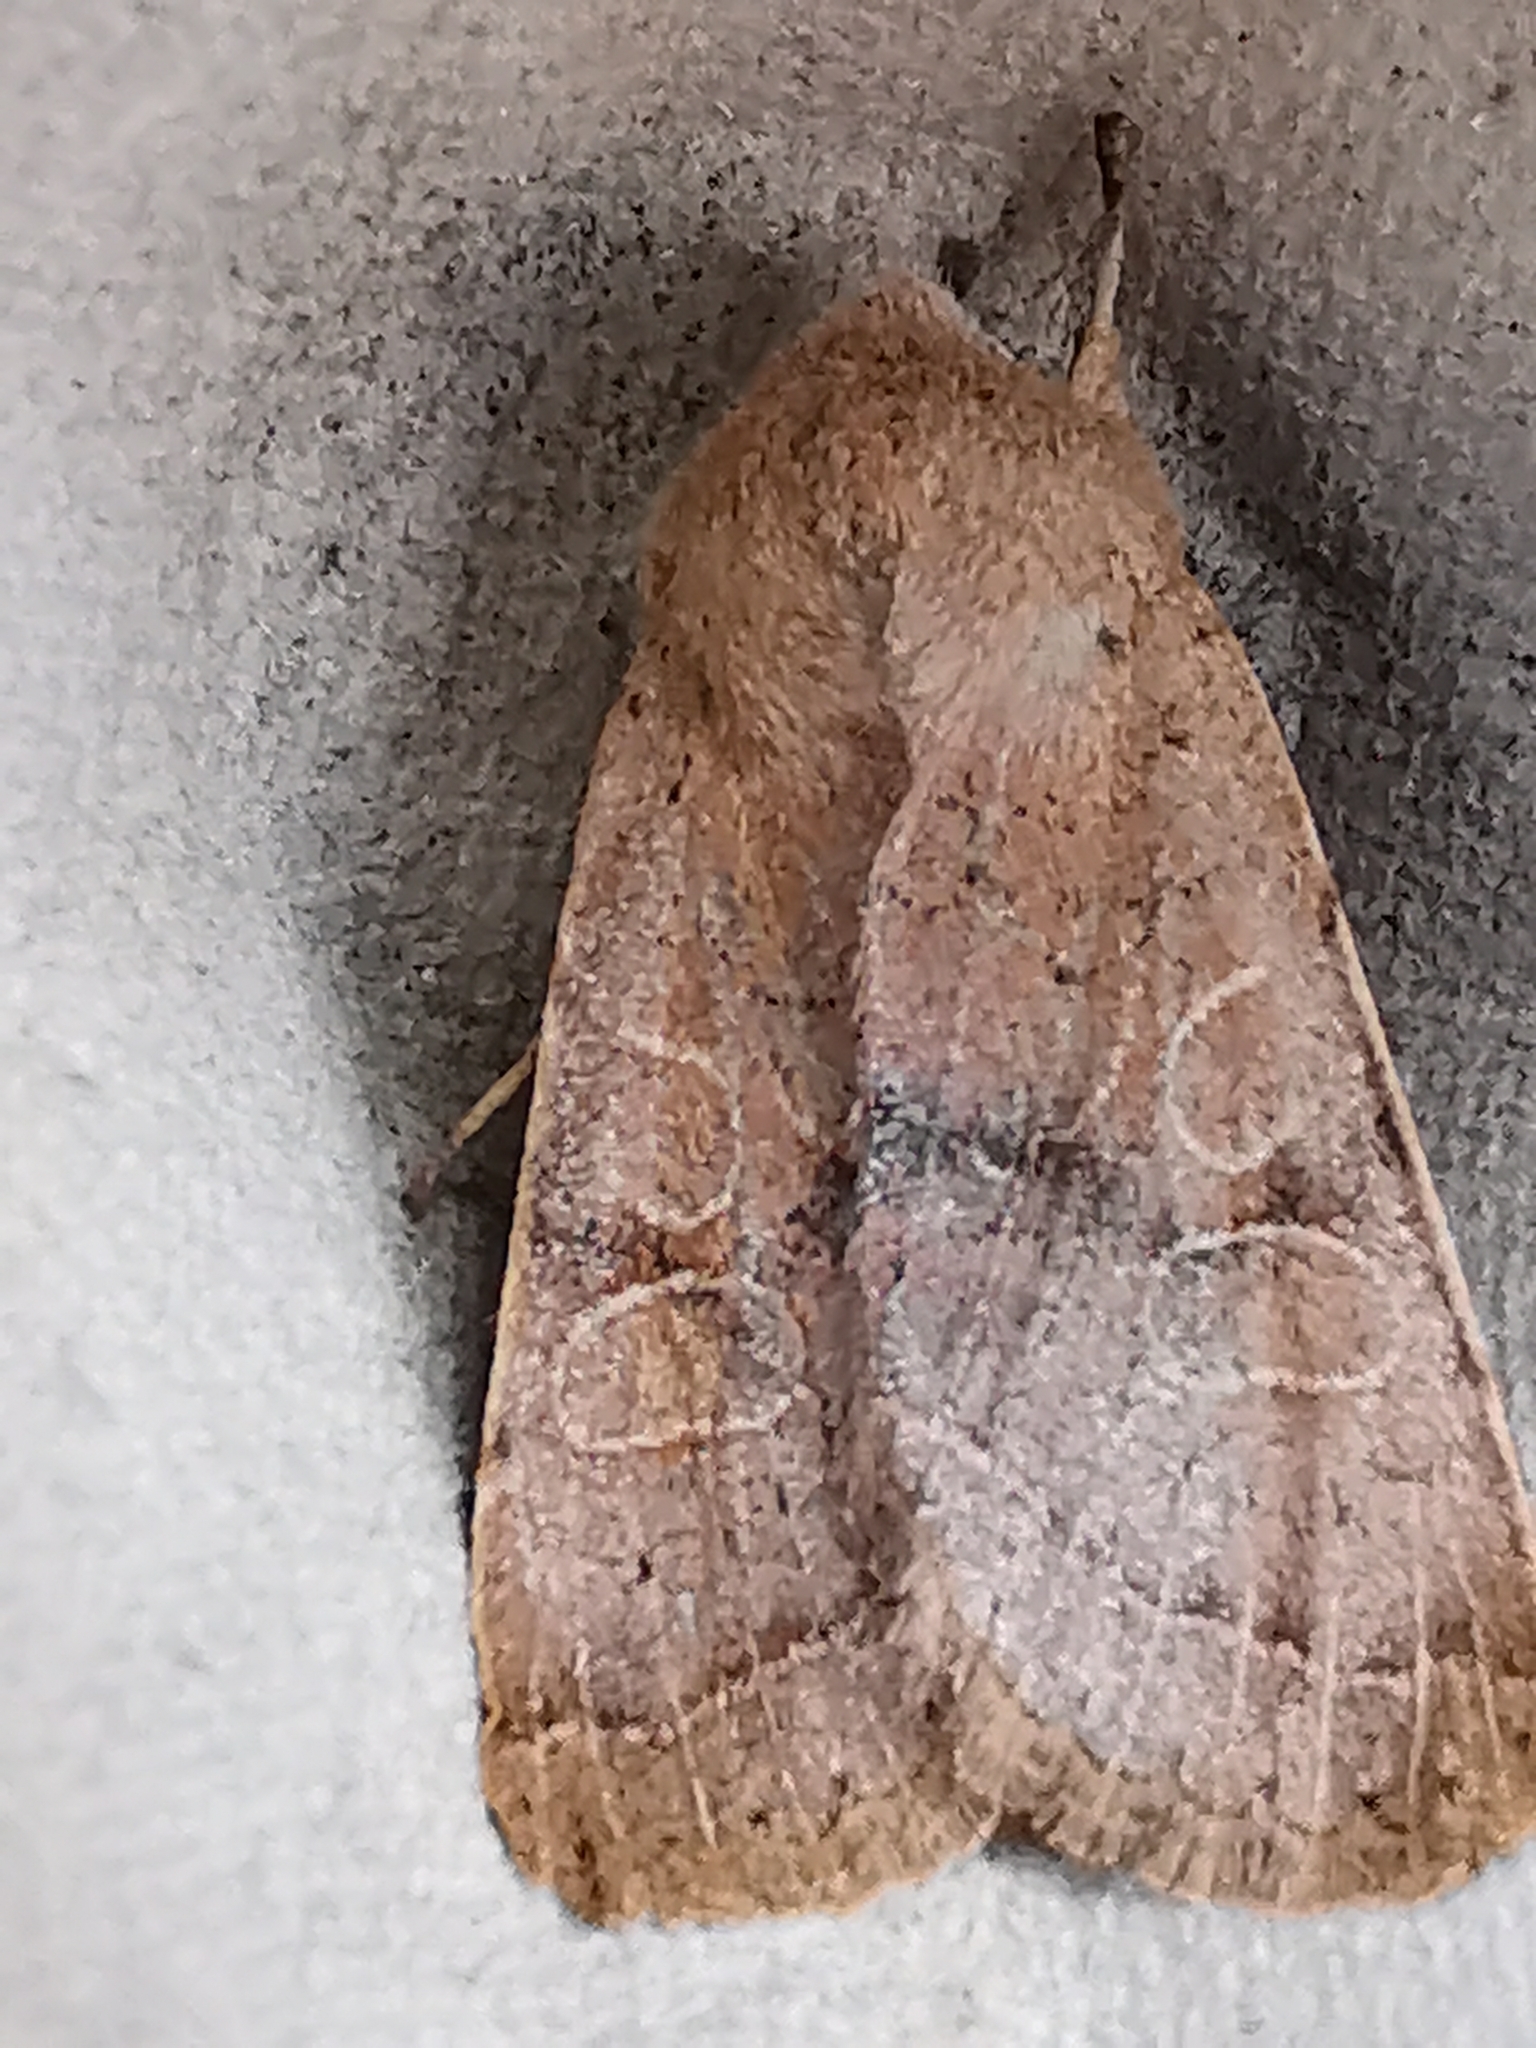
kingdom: Animalia
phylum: Arthropoda
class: Insecta
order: Lepidoptera
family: Noctuidae
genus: Orthosia
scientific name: Orthosia cerasi
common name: Common quaker
